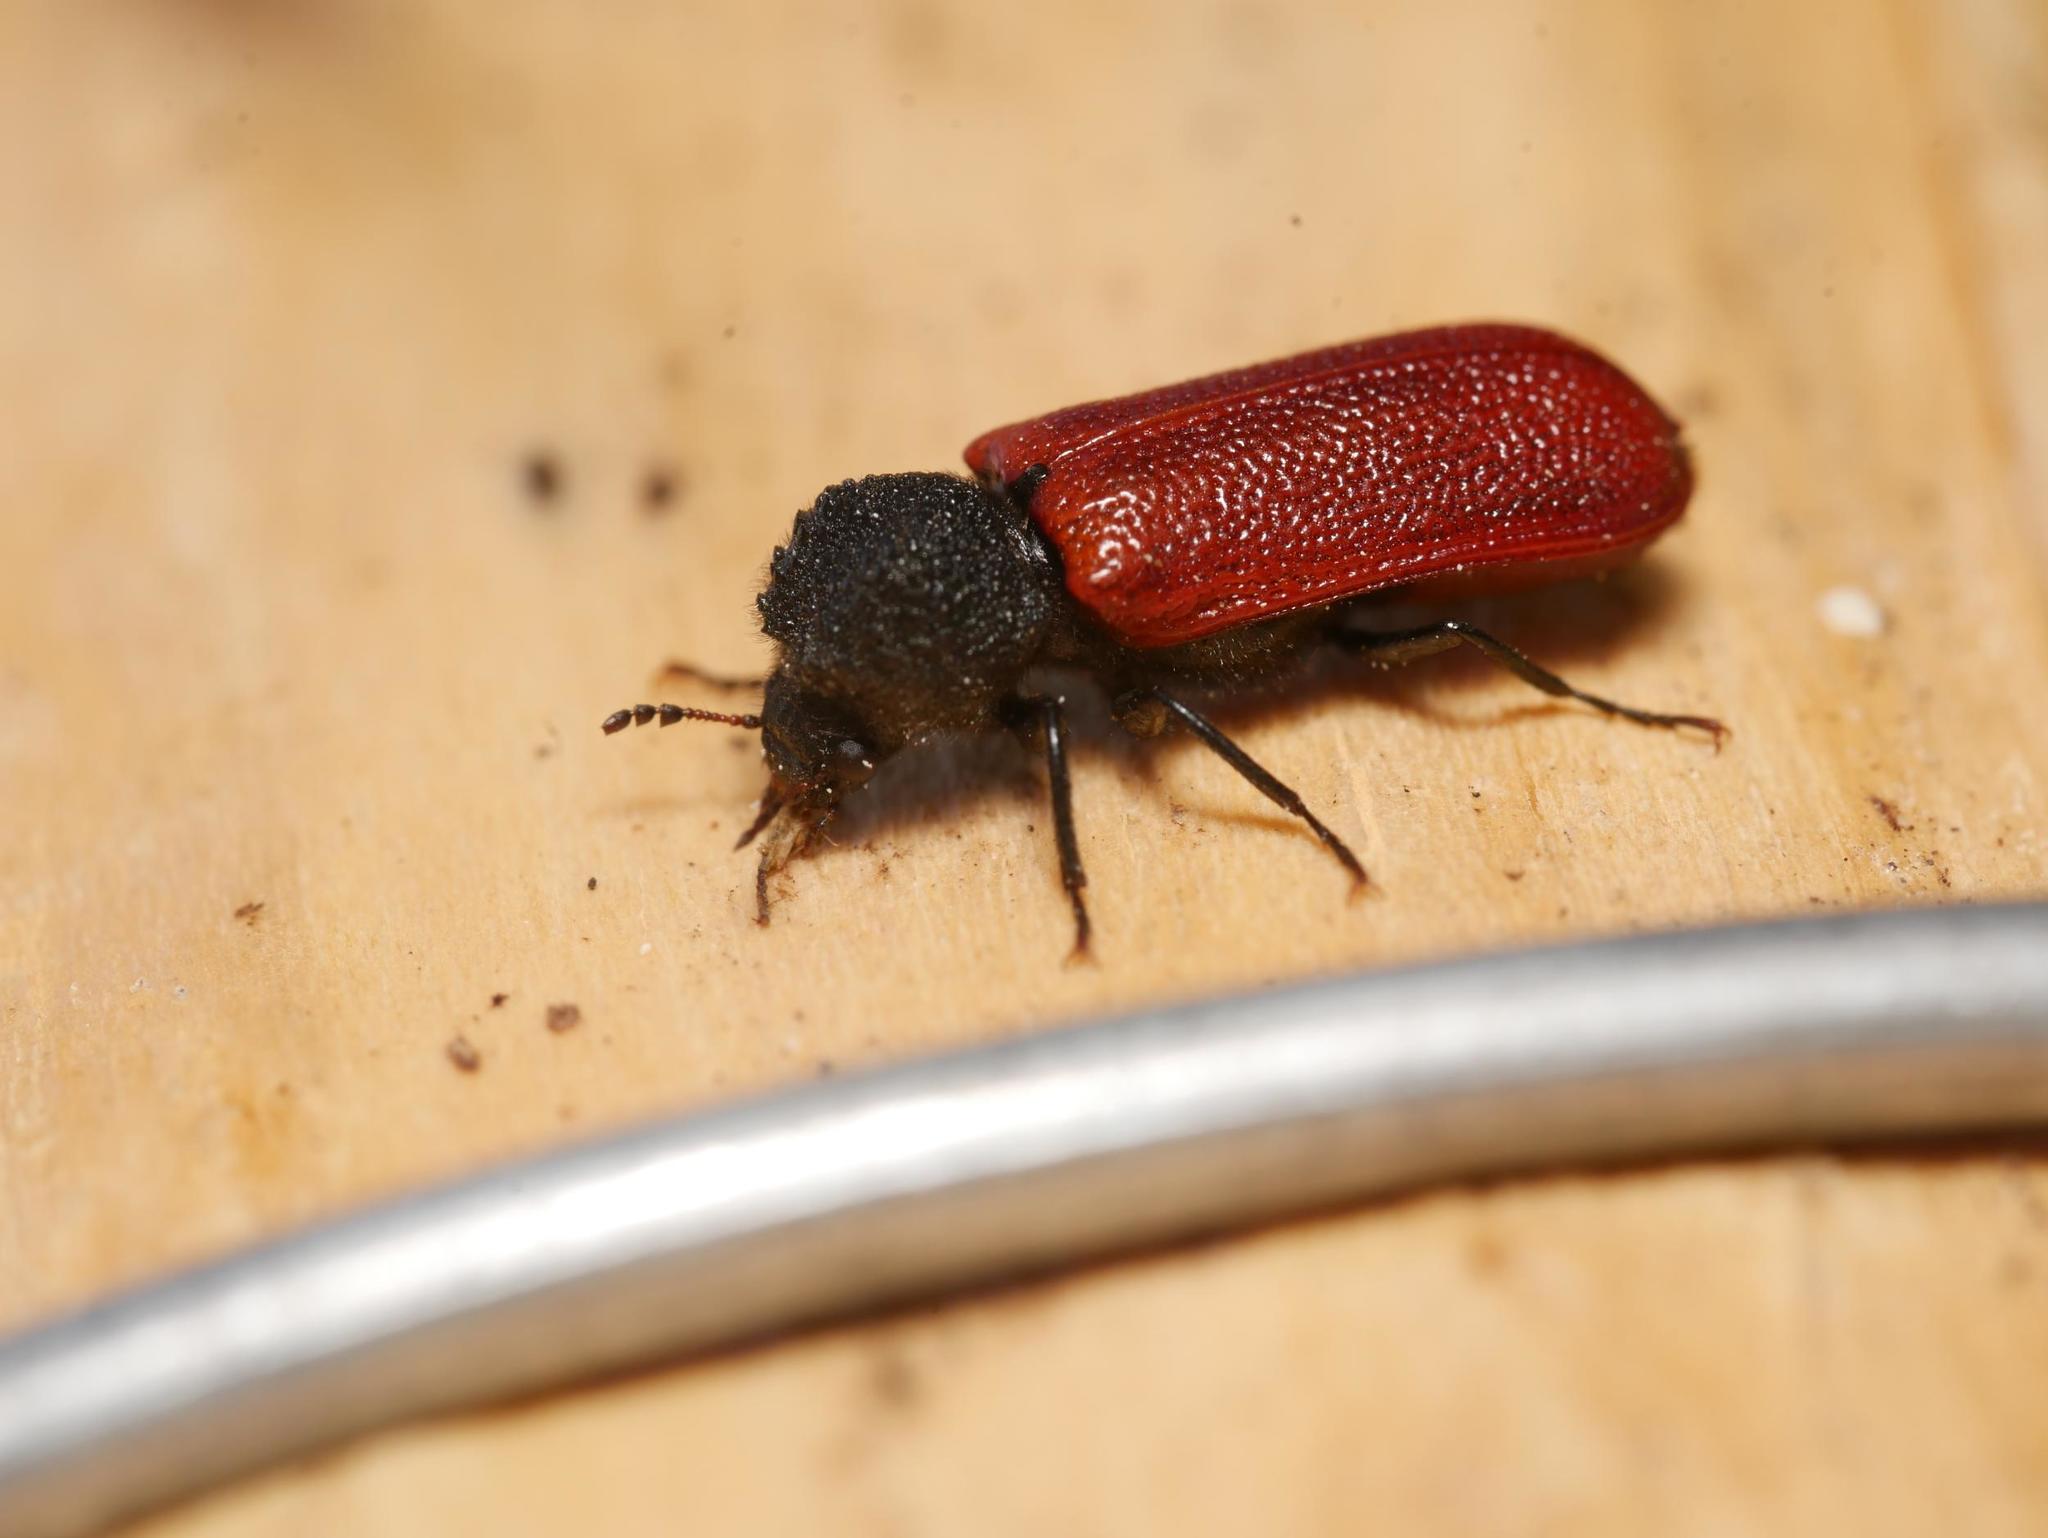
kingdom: Animalia
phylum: Arthropoda
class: Insecta
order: Coleoptera
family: Bostrichidae
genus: Bostrichus
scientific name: Bostrichus capucinus
